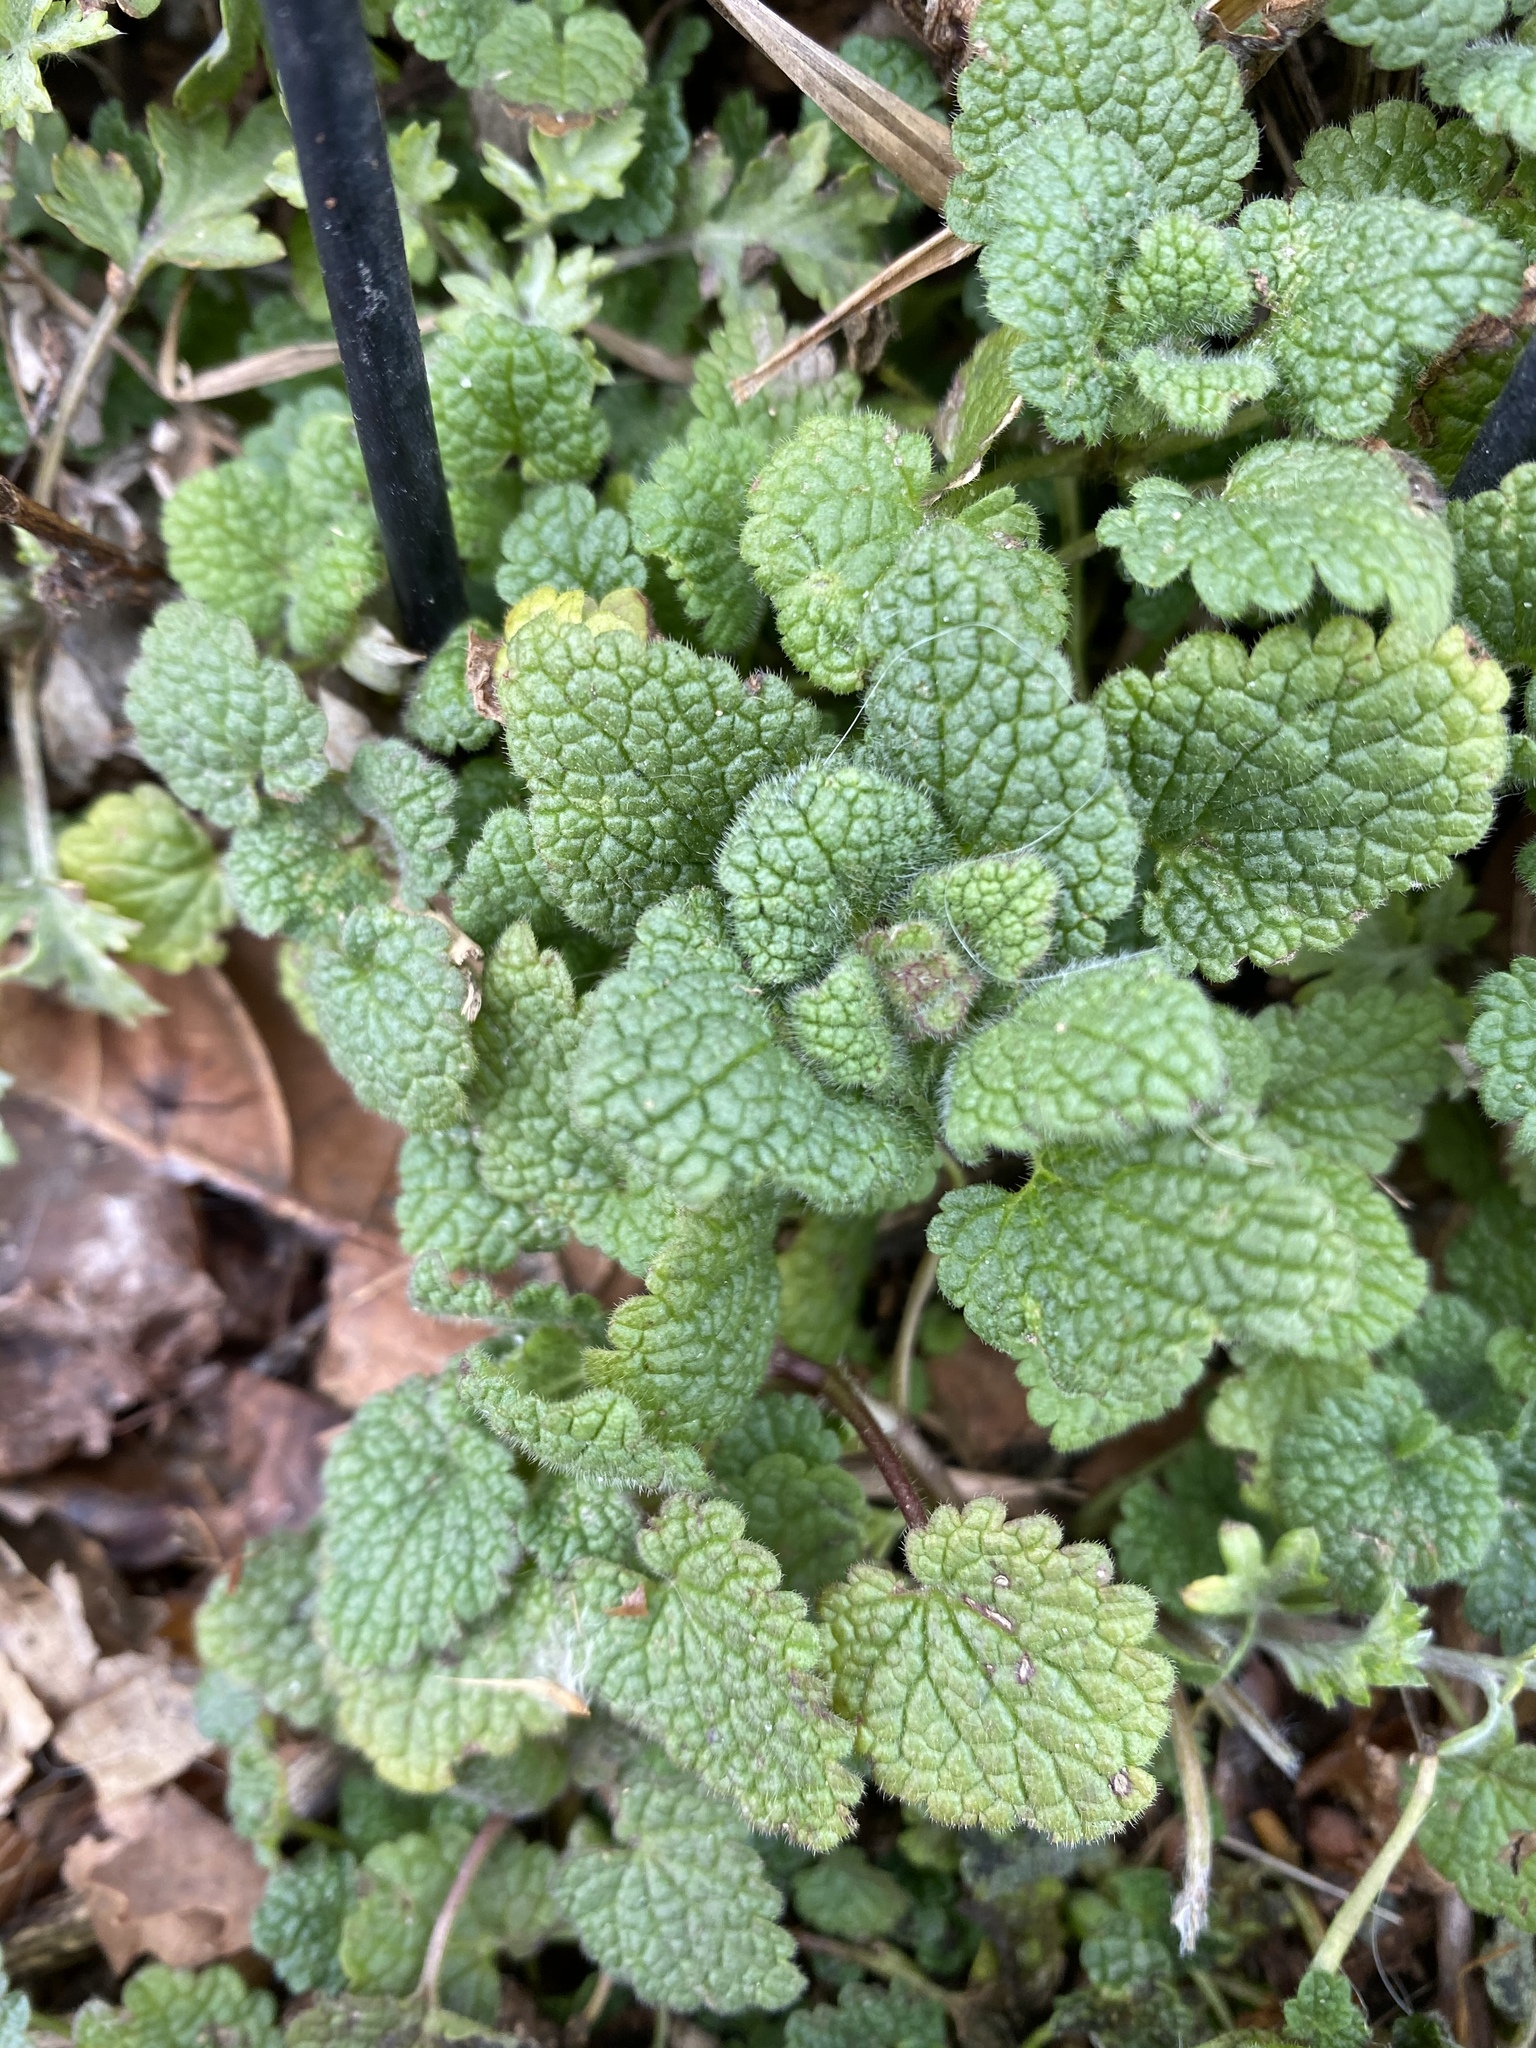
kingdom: Plantae
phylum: Tracheophyta
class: Magnoliopsida
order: Lamiales
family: Lamiaceae
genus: Lamium
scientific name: Lamium purpureum
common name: Red dead-nettle
